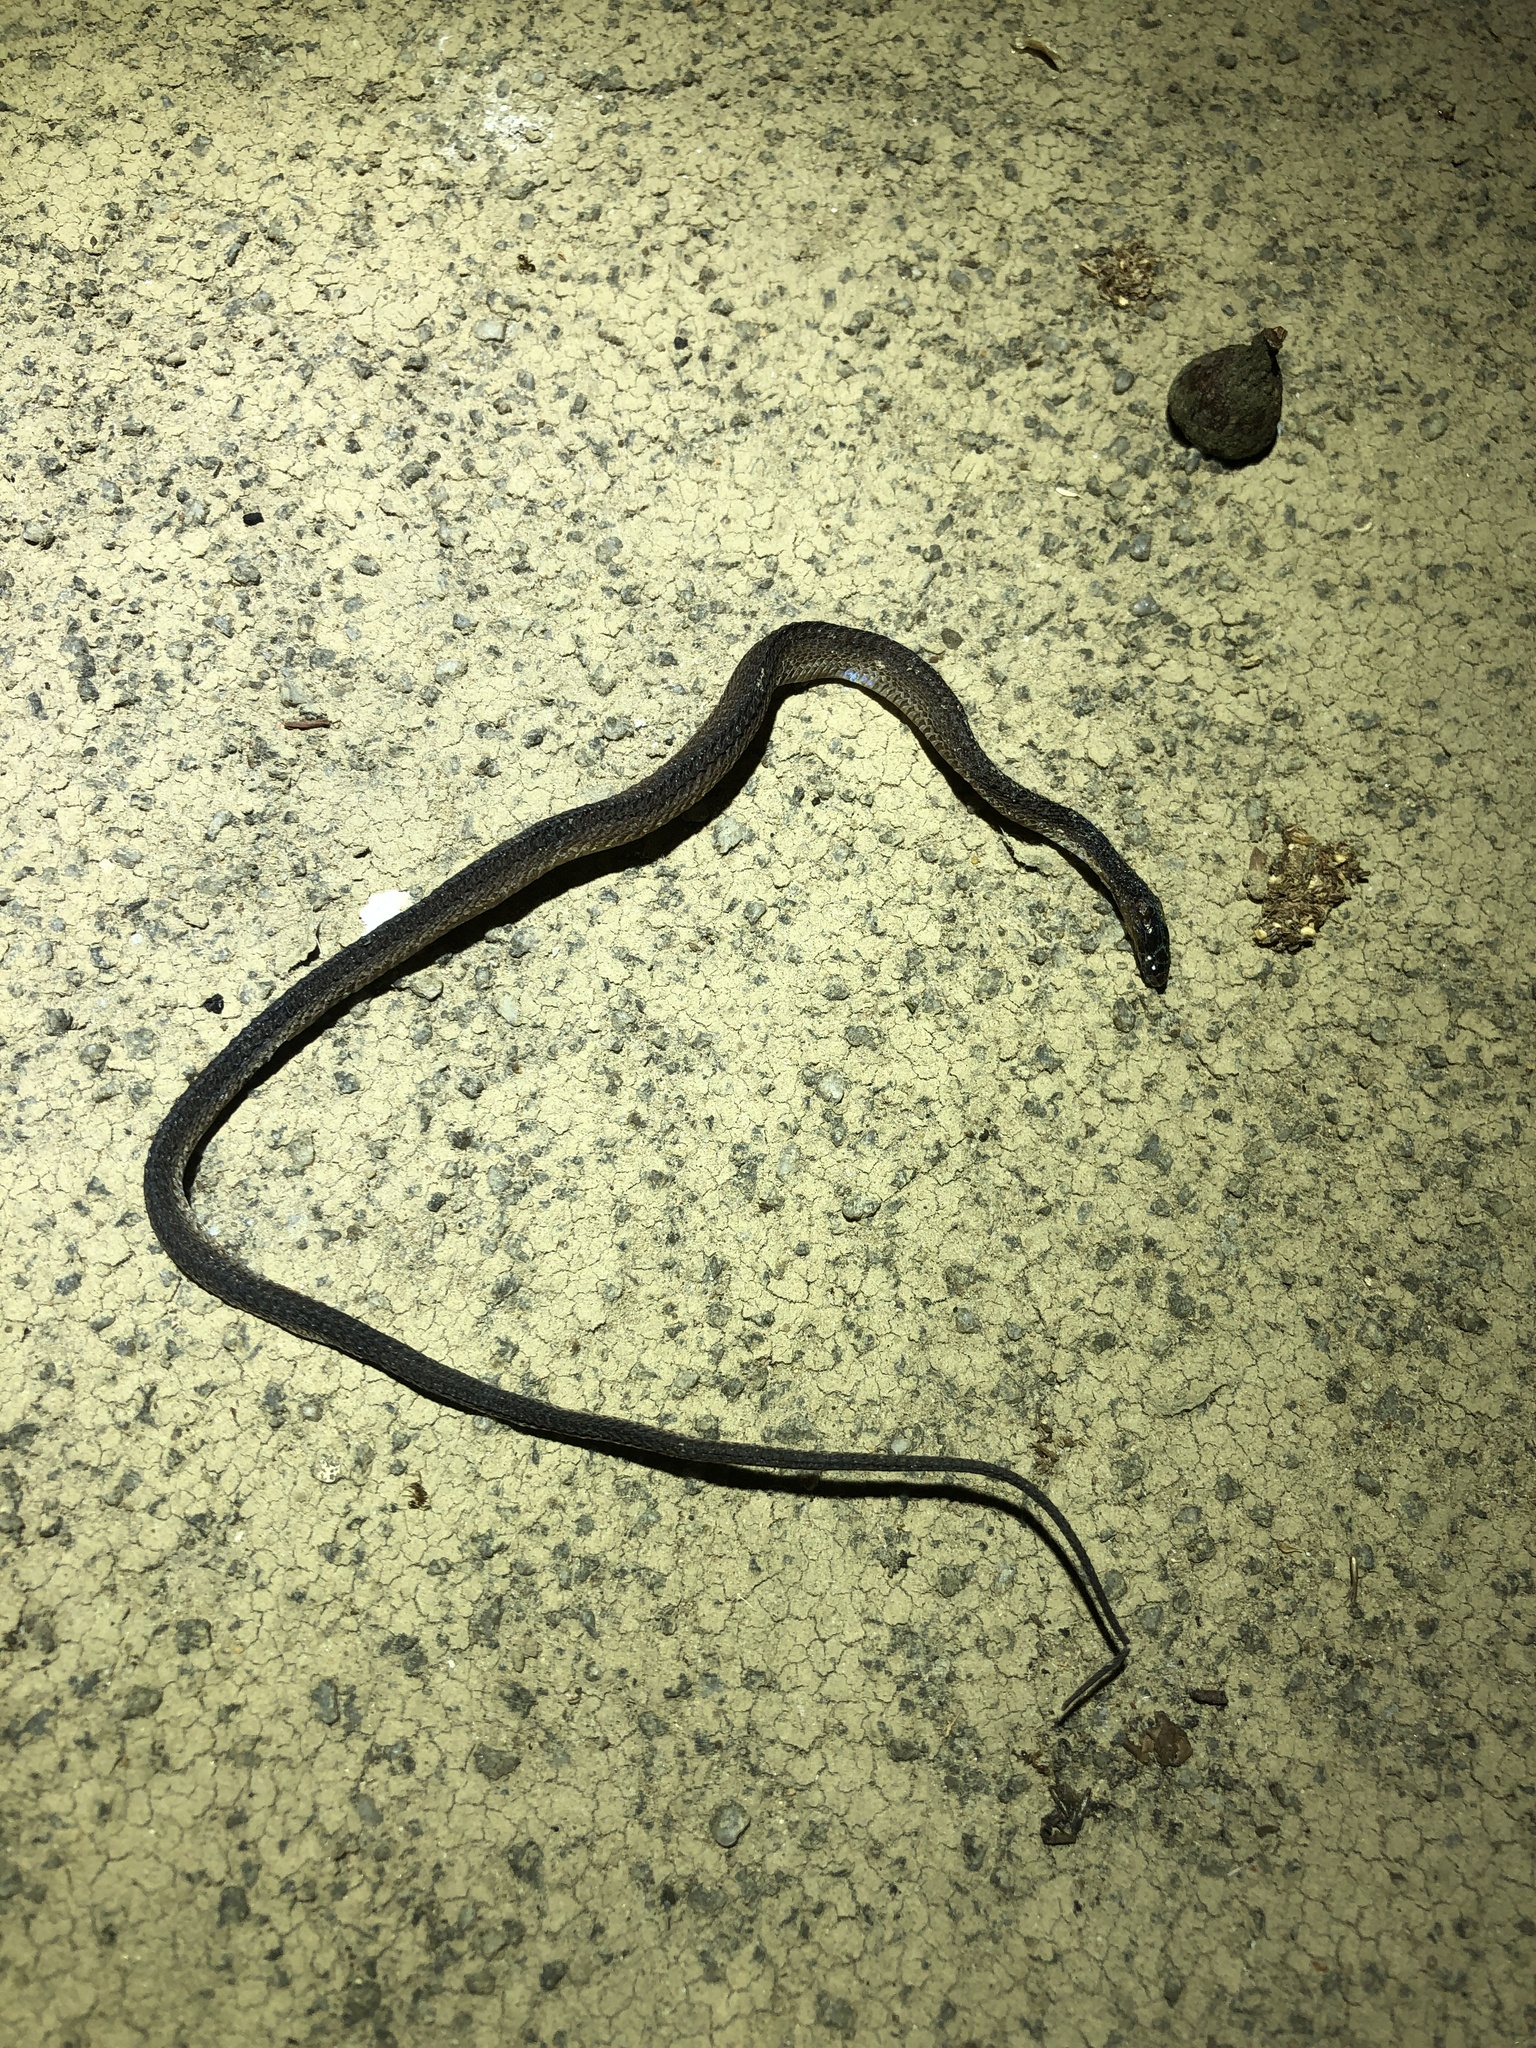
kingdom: Animalia
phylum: Chordata
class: Squamata
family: Xenodermidae
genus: Achalinus
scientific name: Achalinus rufescens
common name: Rufous burrowing snake
